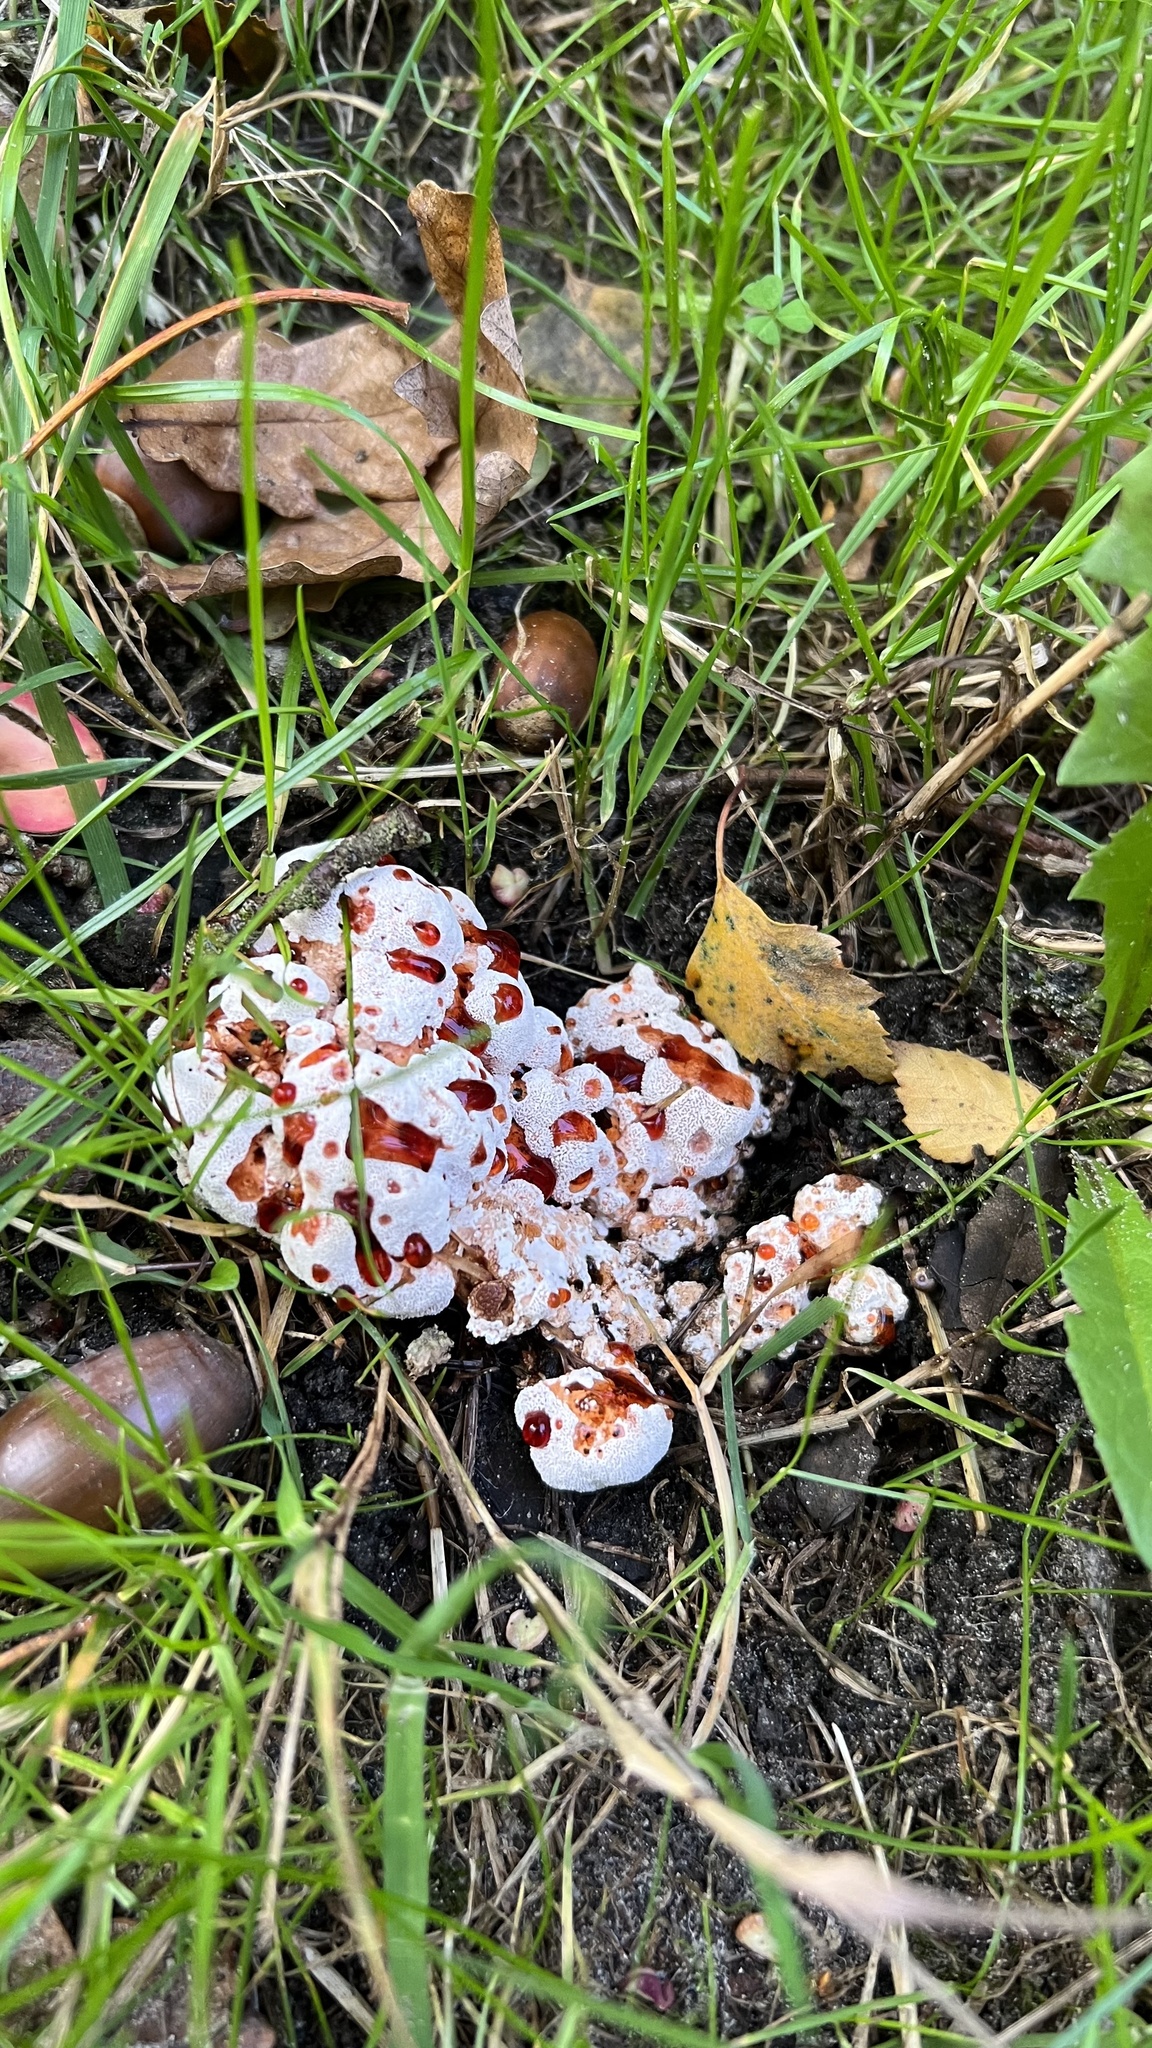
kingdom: Fungi
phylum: Basidiomycota
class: Agaricomycetes
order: Polyporales
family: Podoscyphaceae
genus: Abortiporus
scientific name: Abortiporus biennis
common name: Blushing rosette
